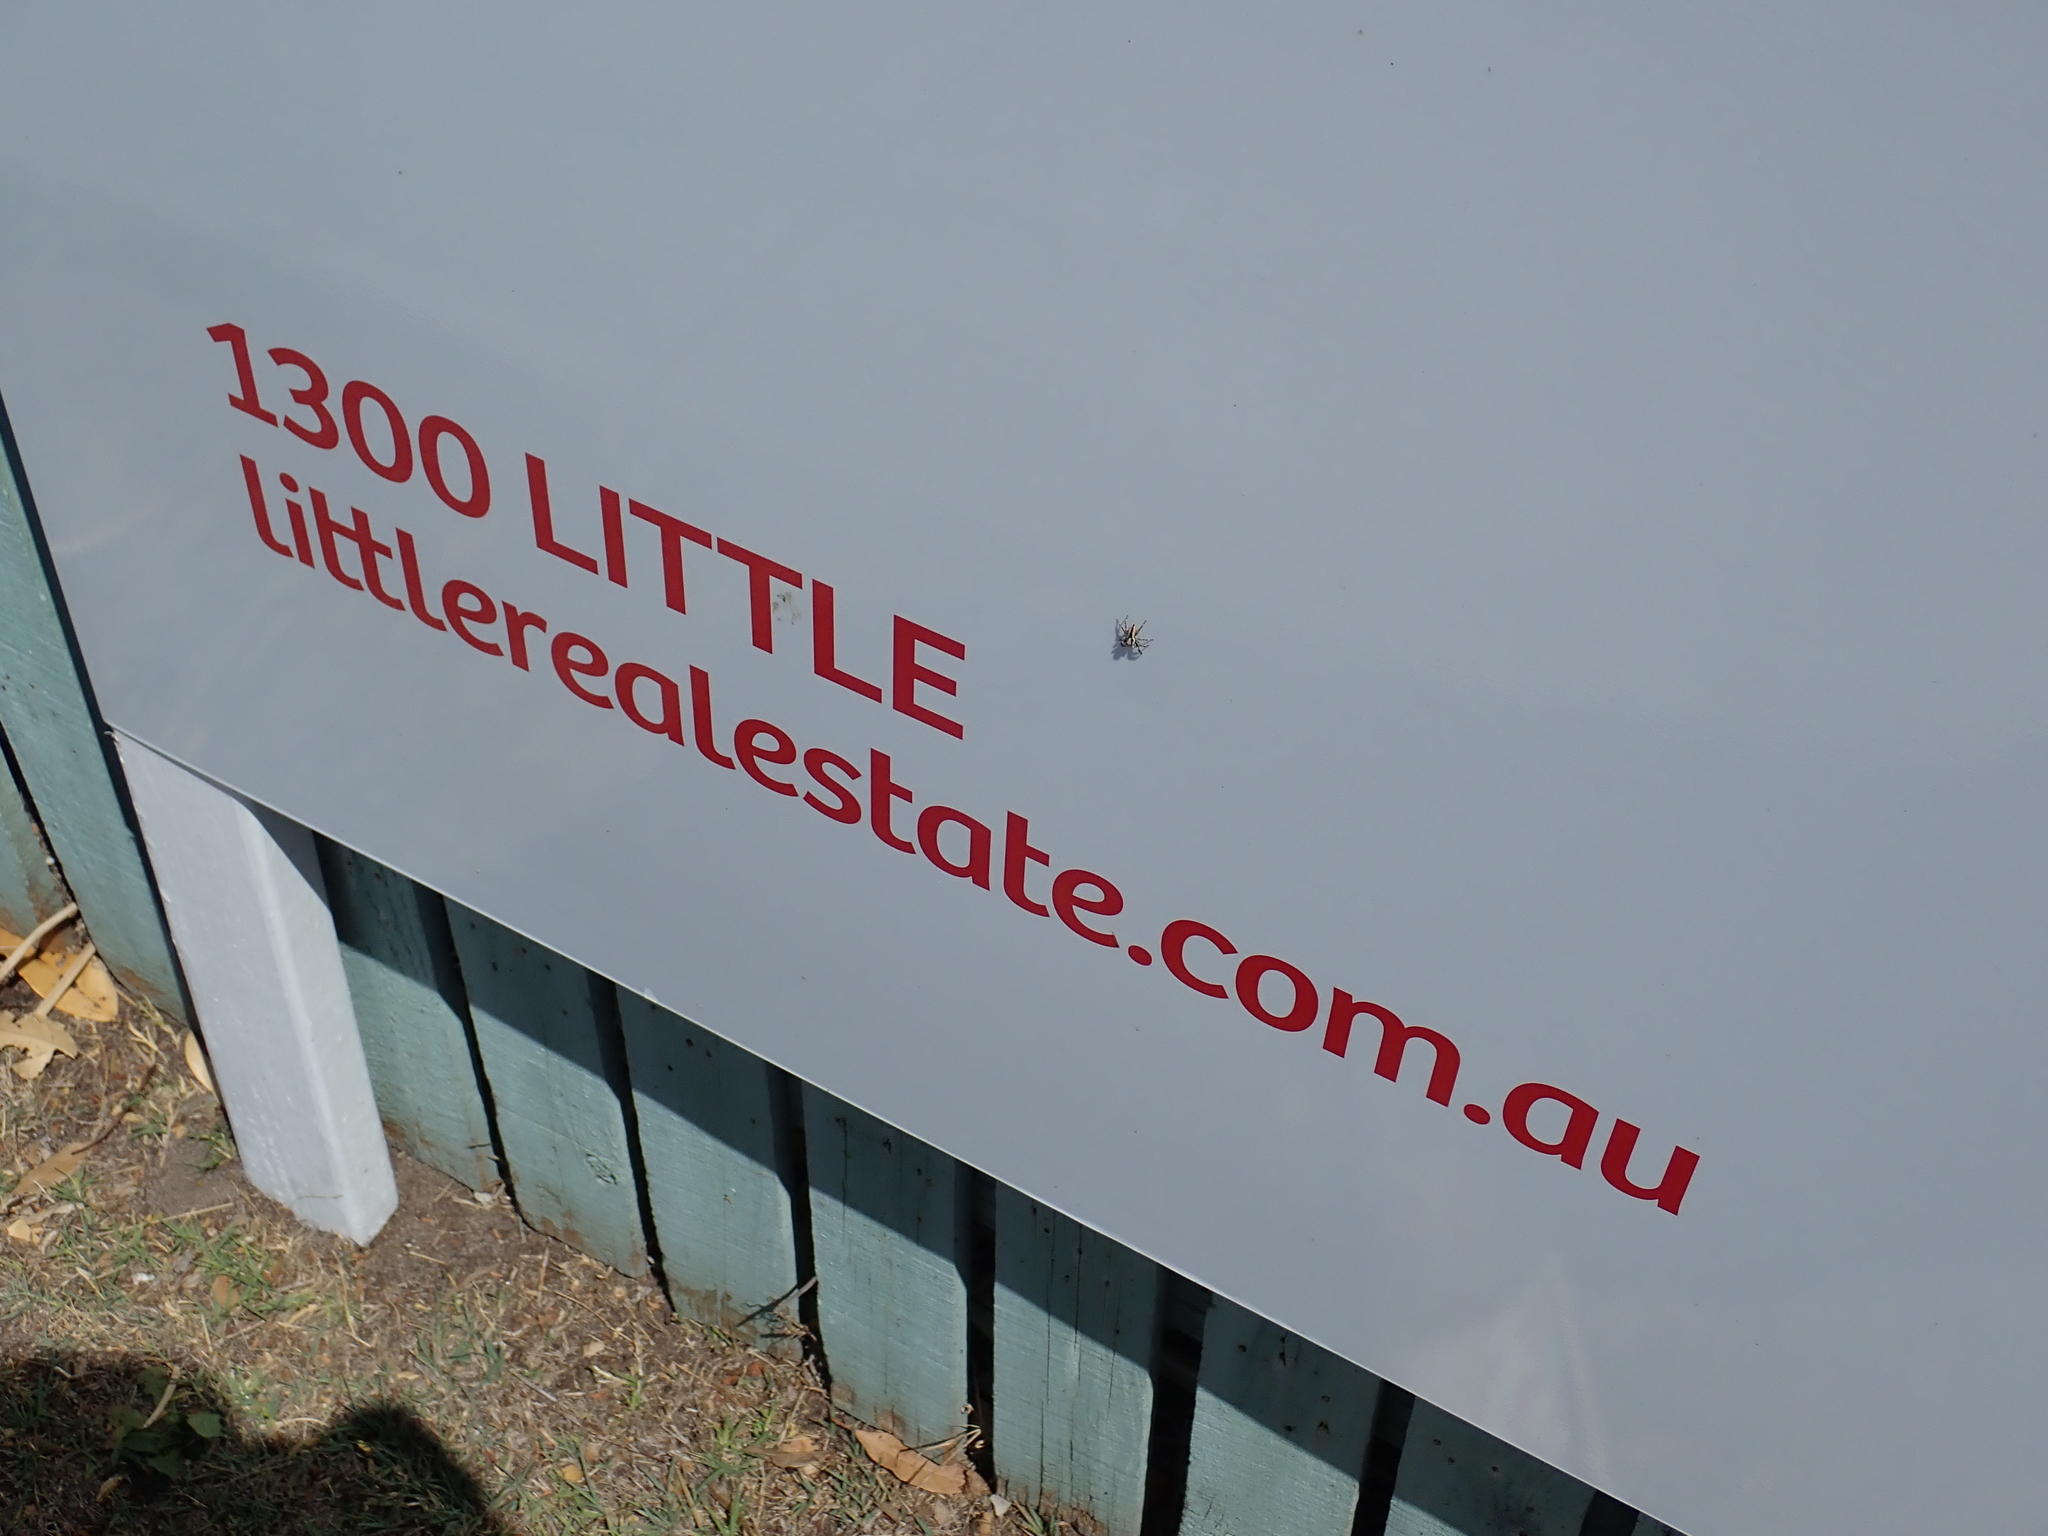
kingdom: Animalia
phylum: Arthropoda
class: Arachnida
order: Araneae
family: Salticidae
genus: Menemerus
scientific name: Menemerus bivittatus
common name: Gray wall jumper
